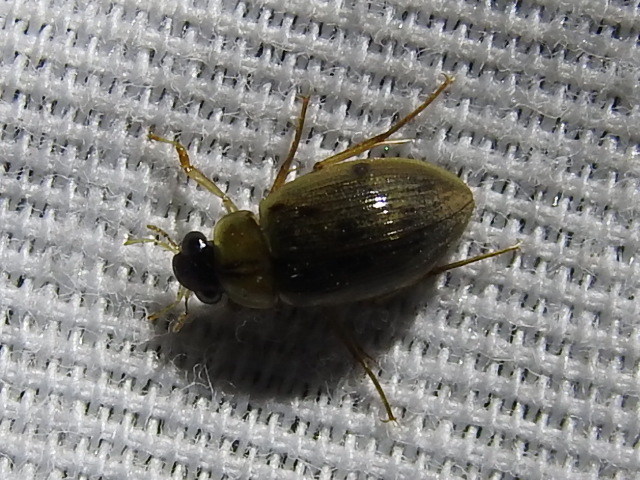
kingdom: Animalia
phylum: Arthropoda
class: Insecta
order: Coleoptera
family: Hydrophilidae
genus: Berosus
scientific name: Berosus
